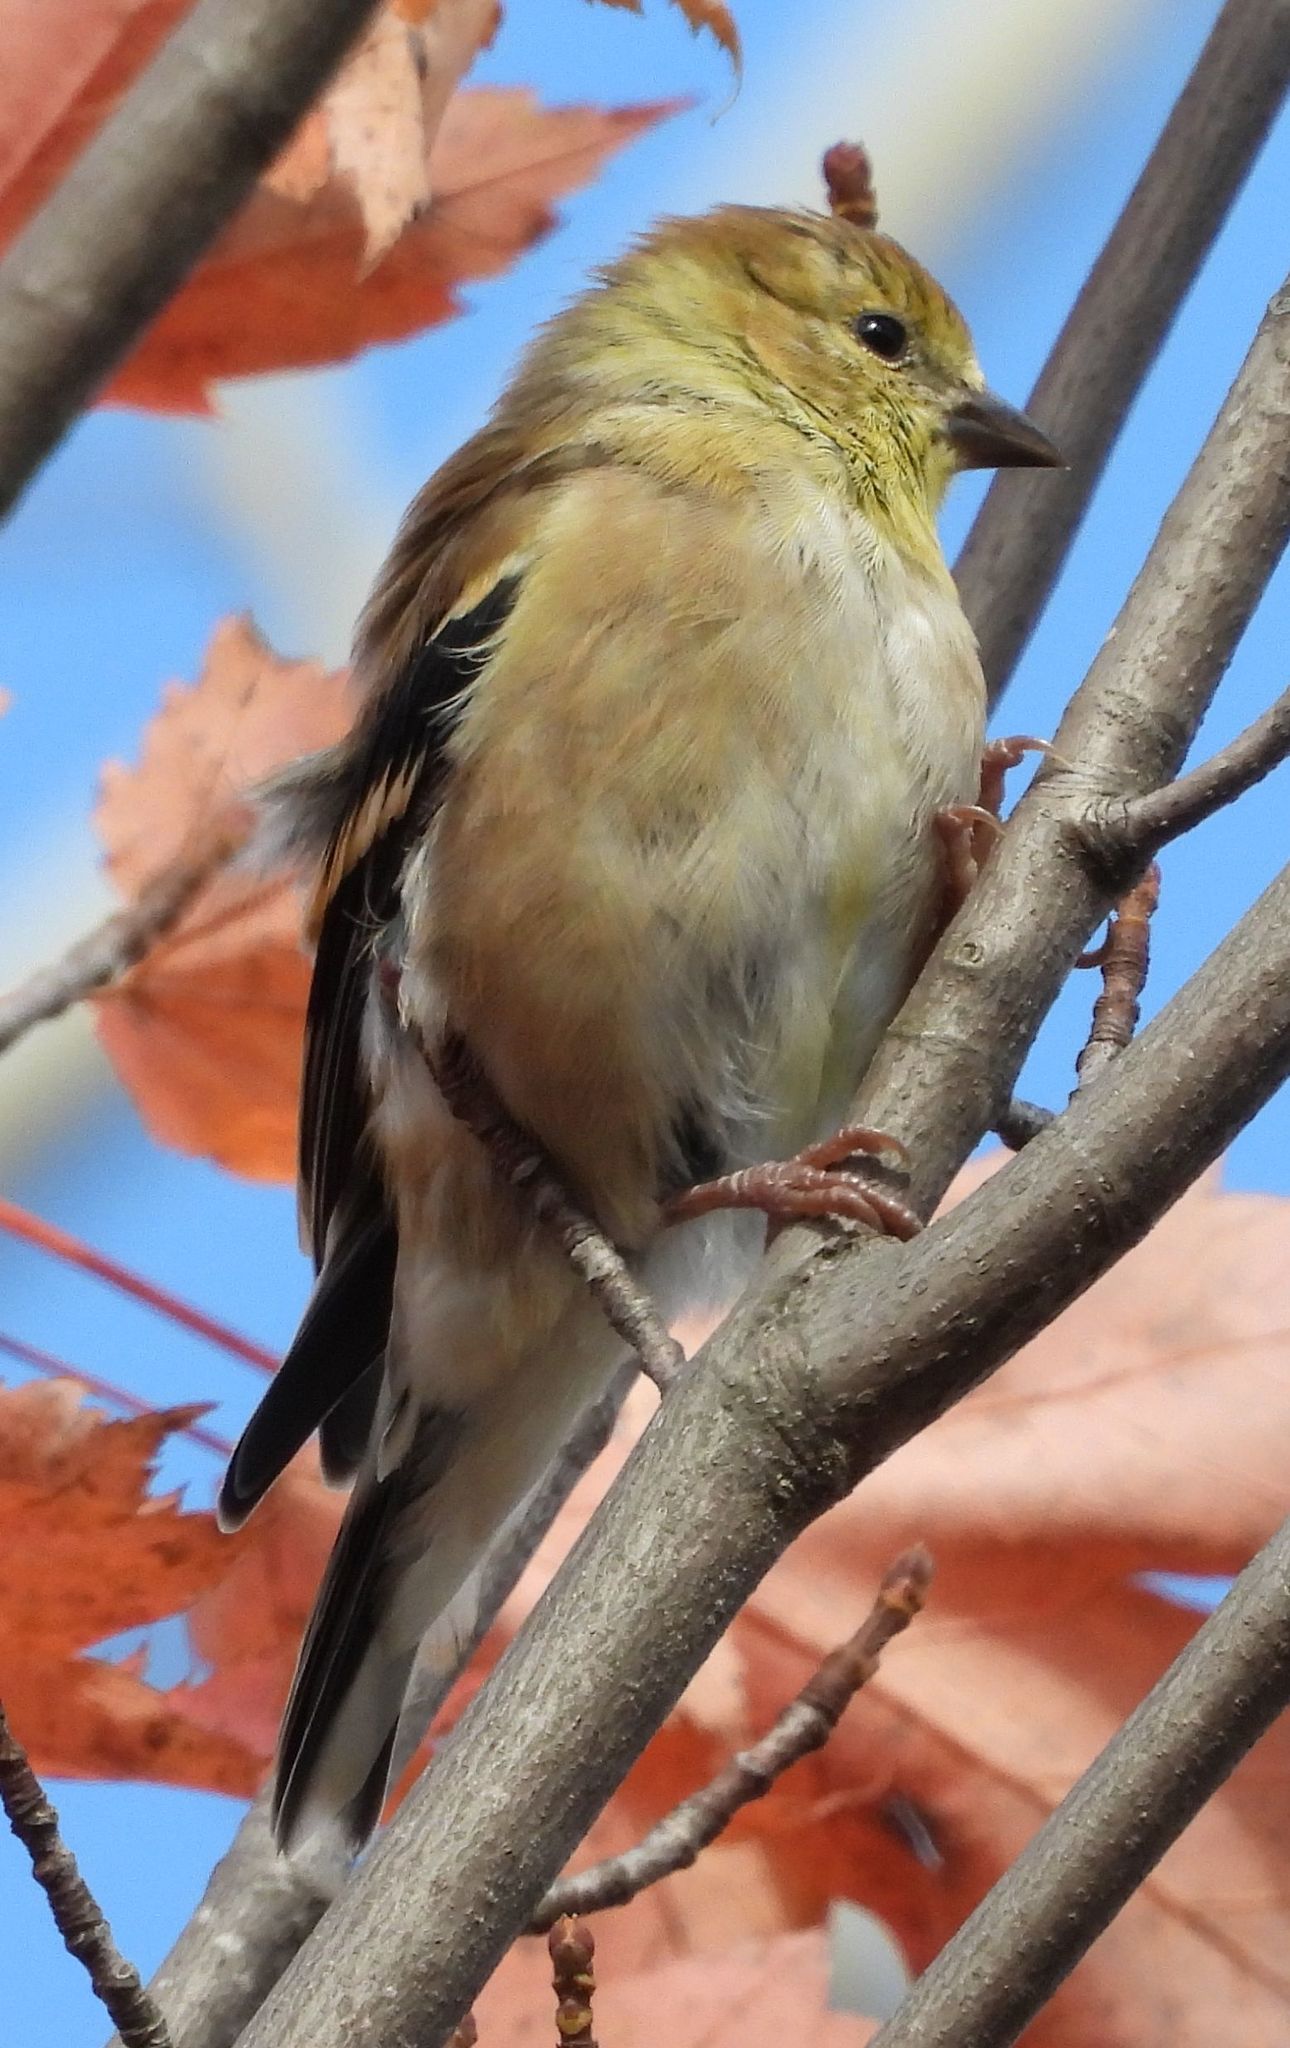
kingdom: Animalia
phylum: Chordata
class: Aves
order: Passeriformes
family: Fringillidae
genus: Spinus
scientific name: Spinus tristis
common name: American goldfinch
